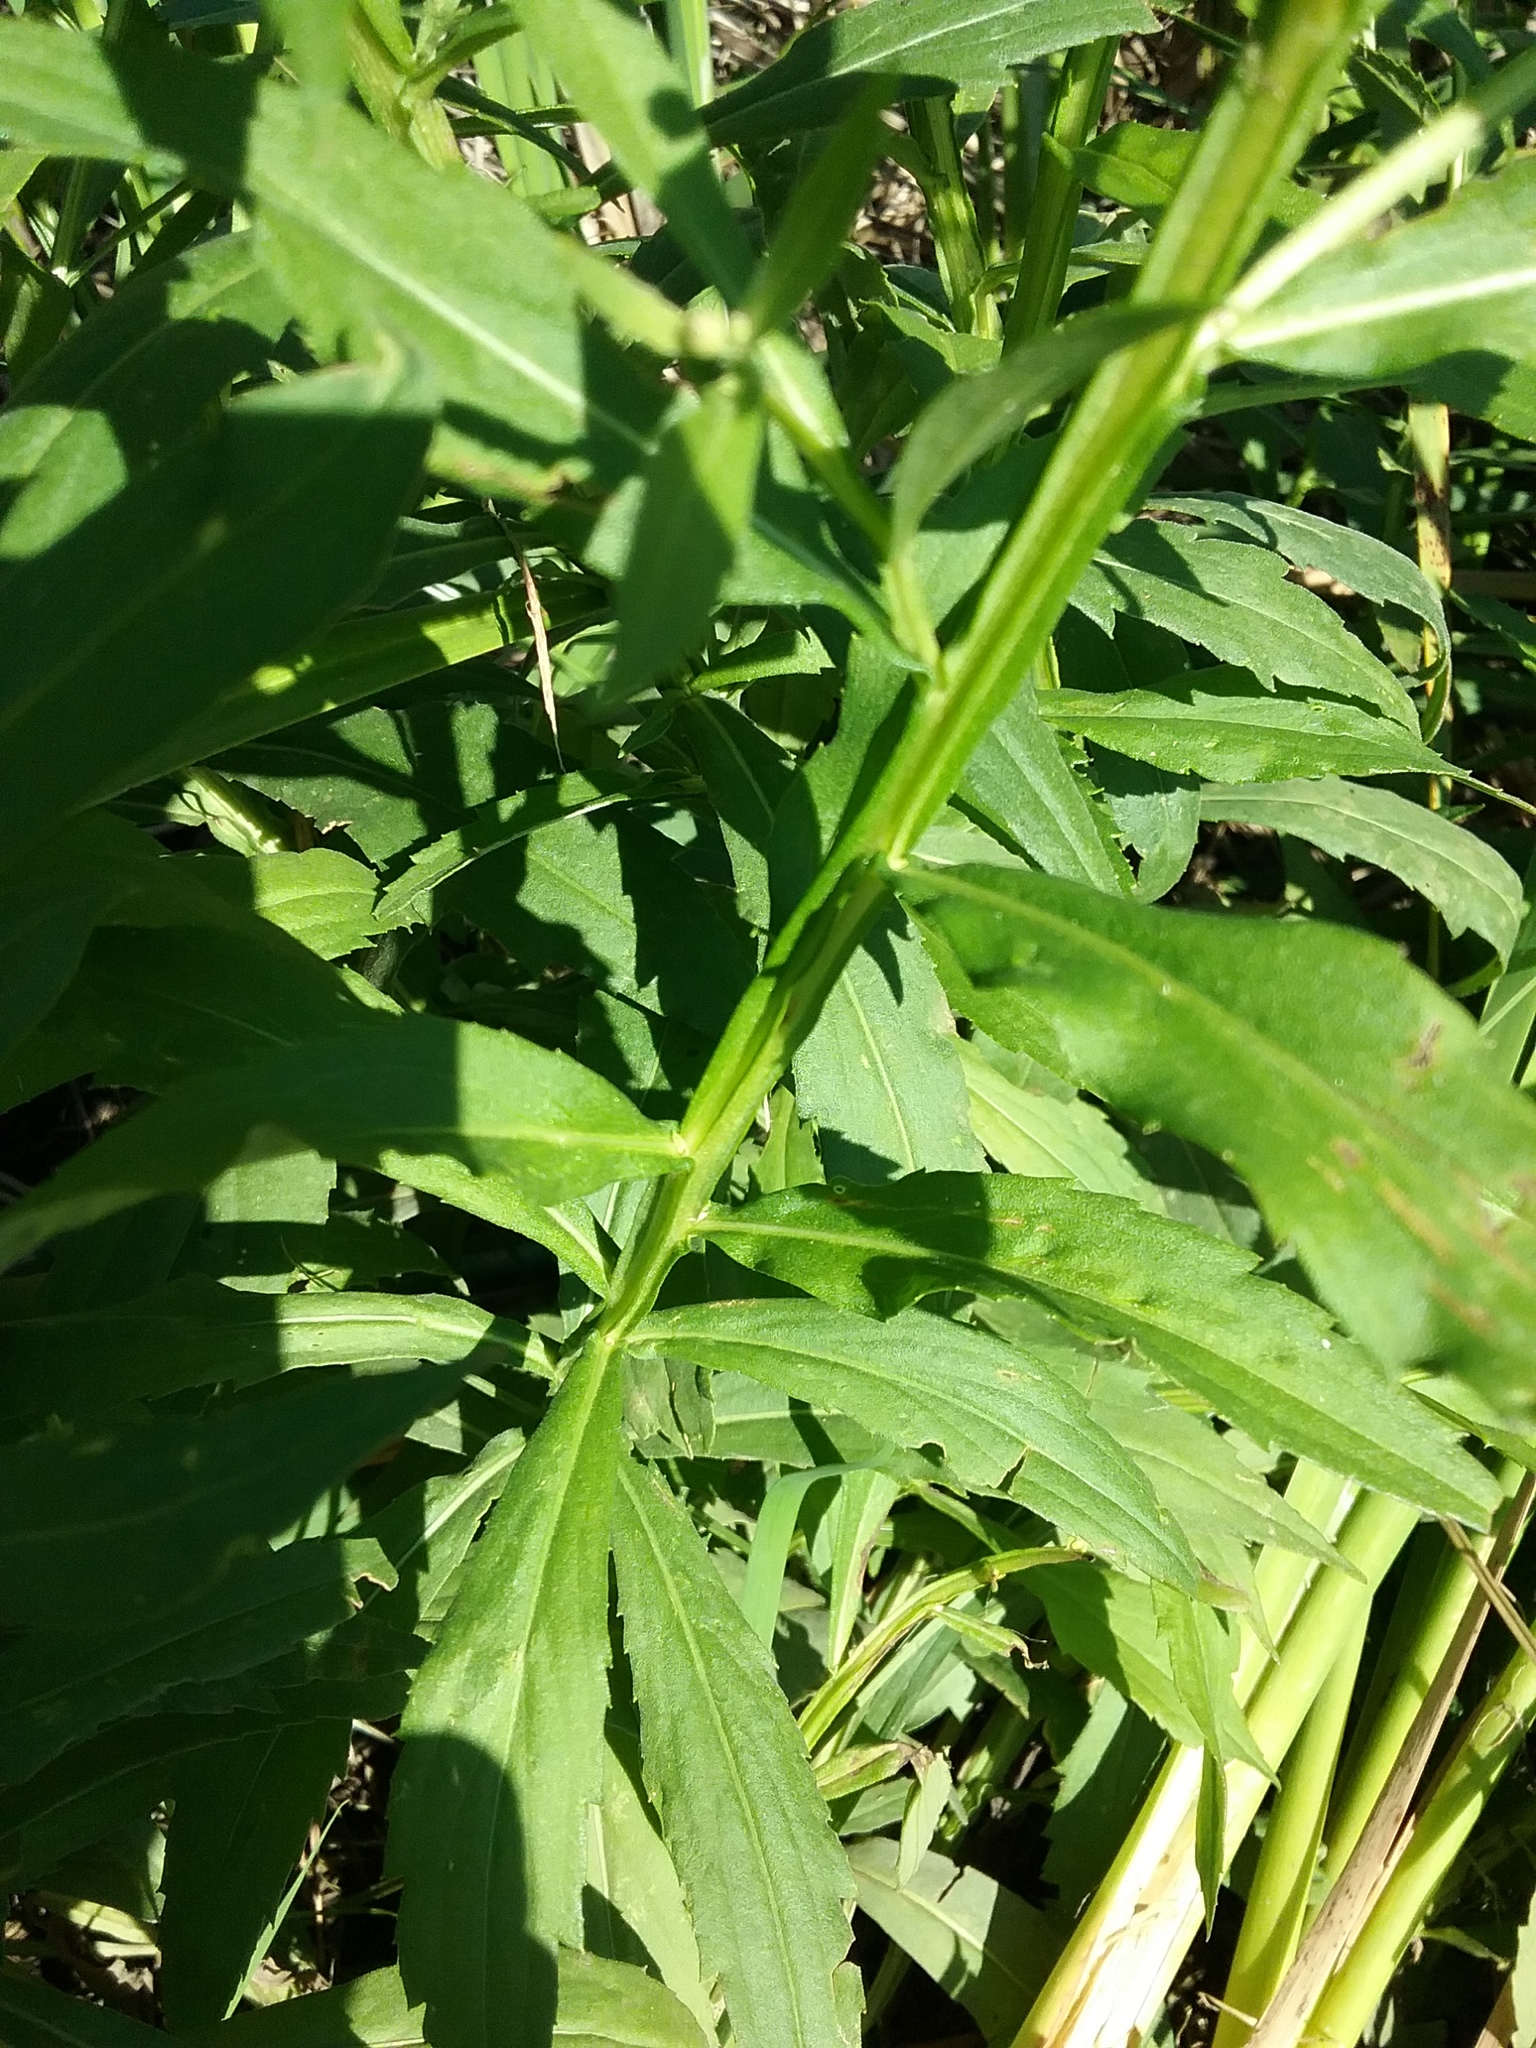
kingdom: Plantae
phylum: Tracheophyta
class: Magnoliopsida
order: Asterales
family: Asteraceae
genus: Helenium
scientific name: Helenium autumnale
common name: Sneezeweed
